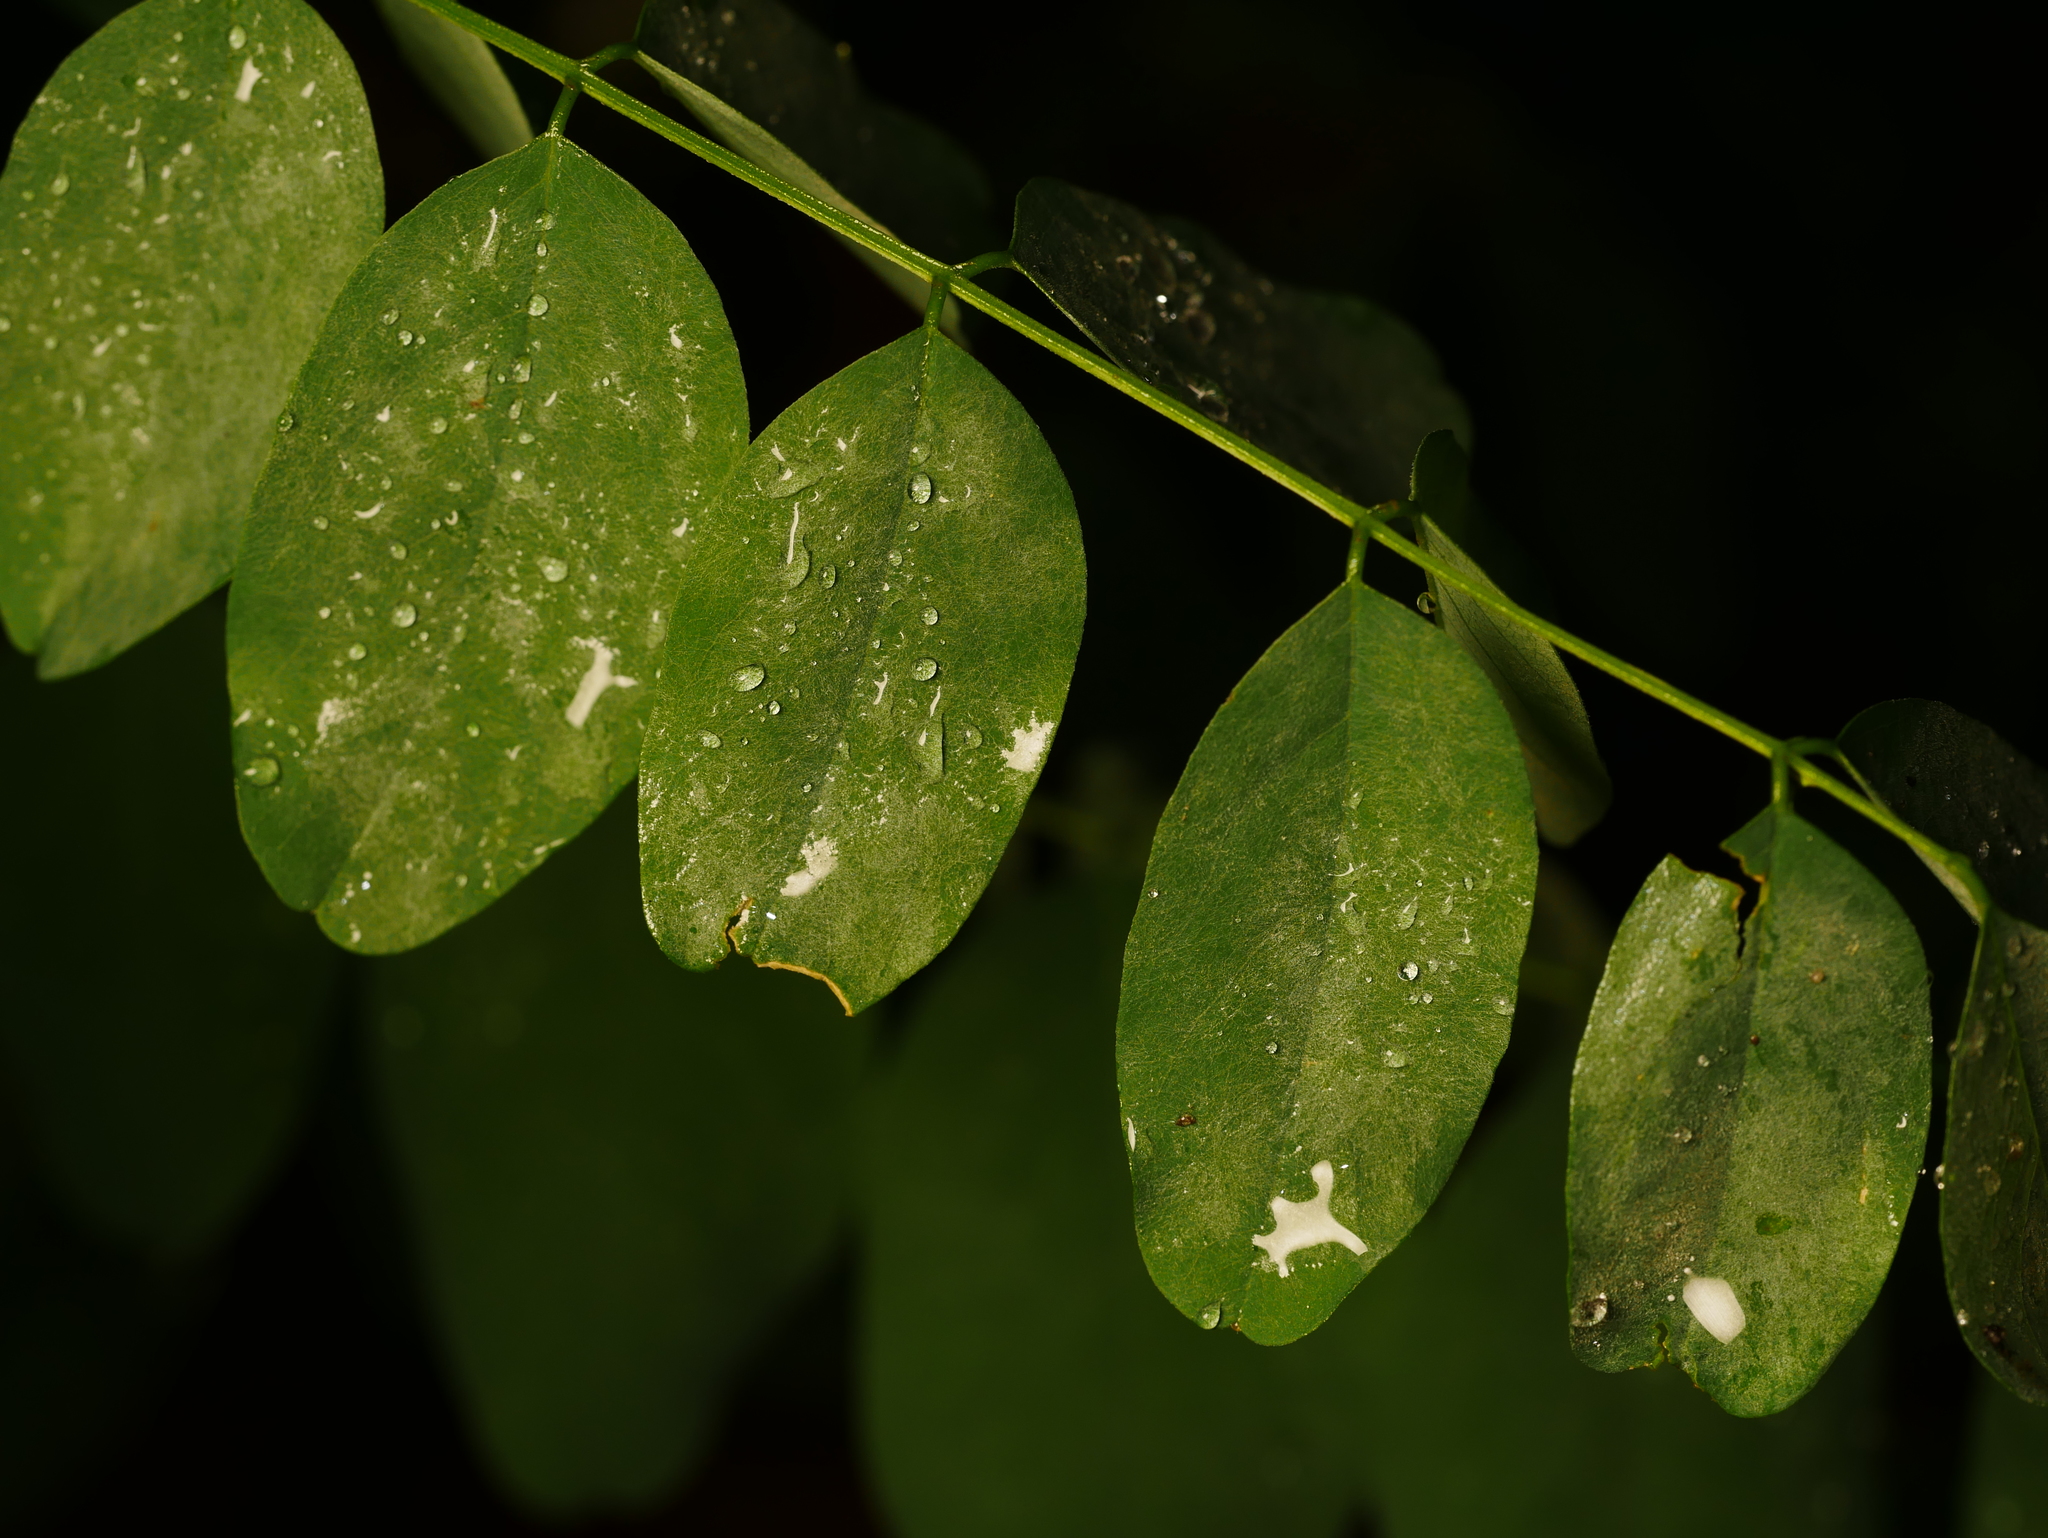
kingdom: Plantae
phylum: Tracheophyta
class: Magnoliopsida
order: Fabales
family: Fabaceae
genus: Robinia
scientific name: Robinia pseudoacacia
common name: Black locust
